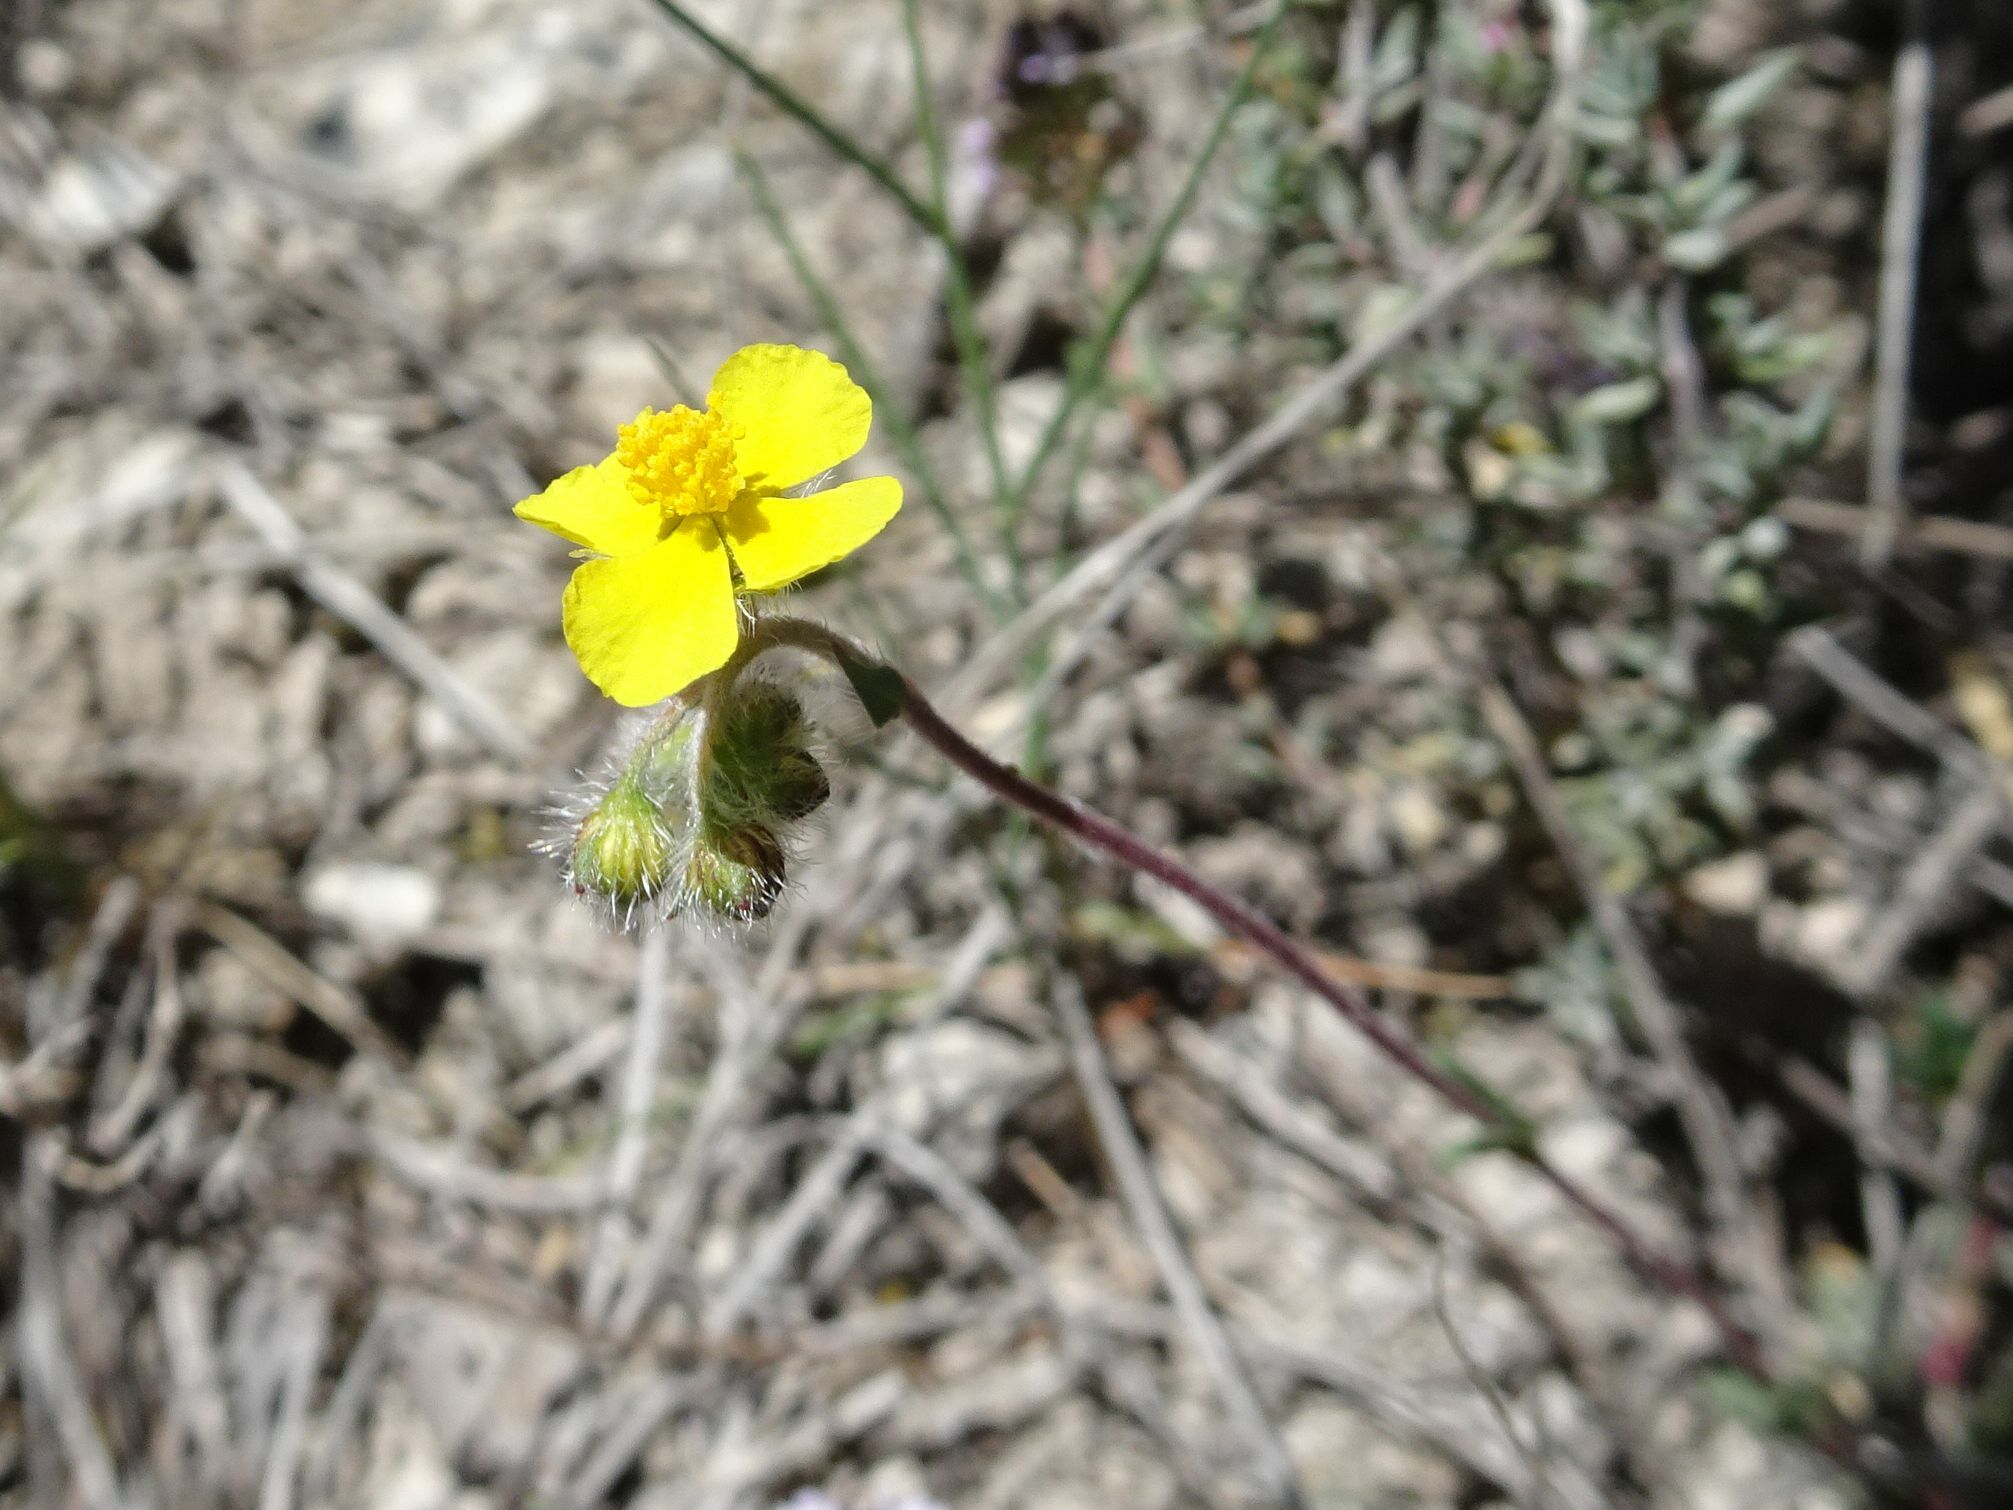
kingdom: Plantae
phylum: Tracheophyta
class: Magnoliopsida
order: Malvales
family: Cistaceae
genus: Helianthemum
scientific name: Helianthemum oelandicum
